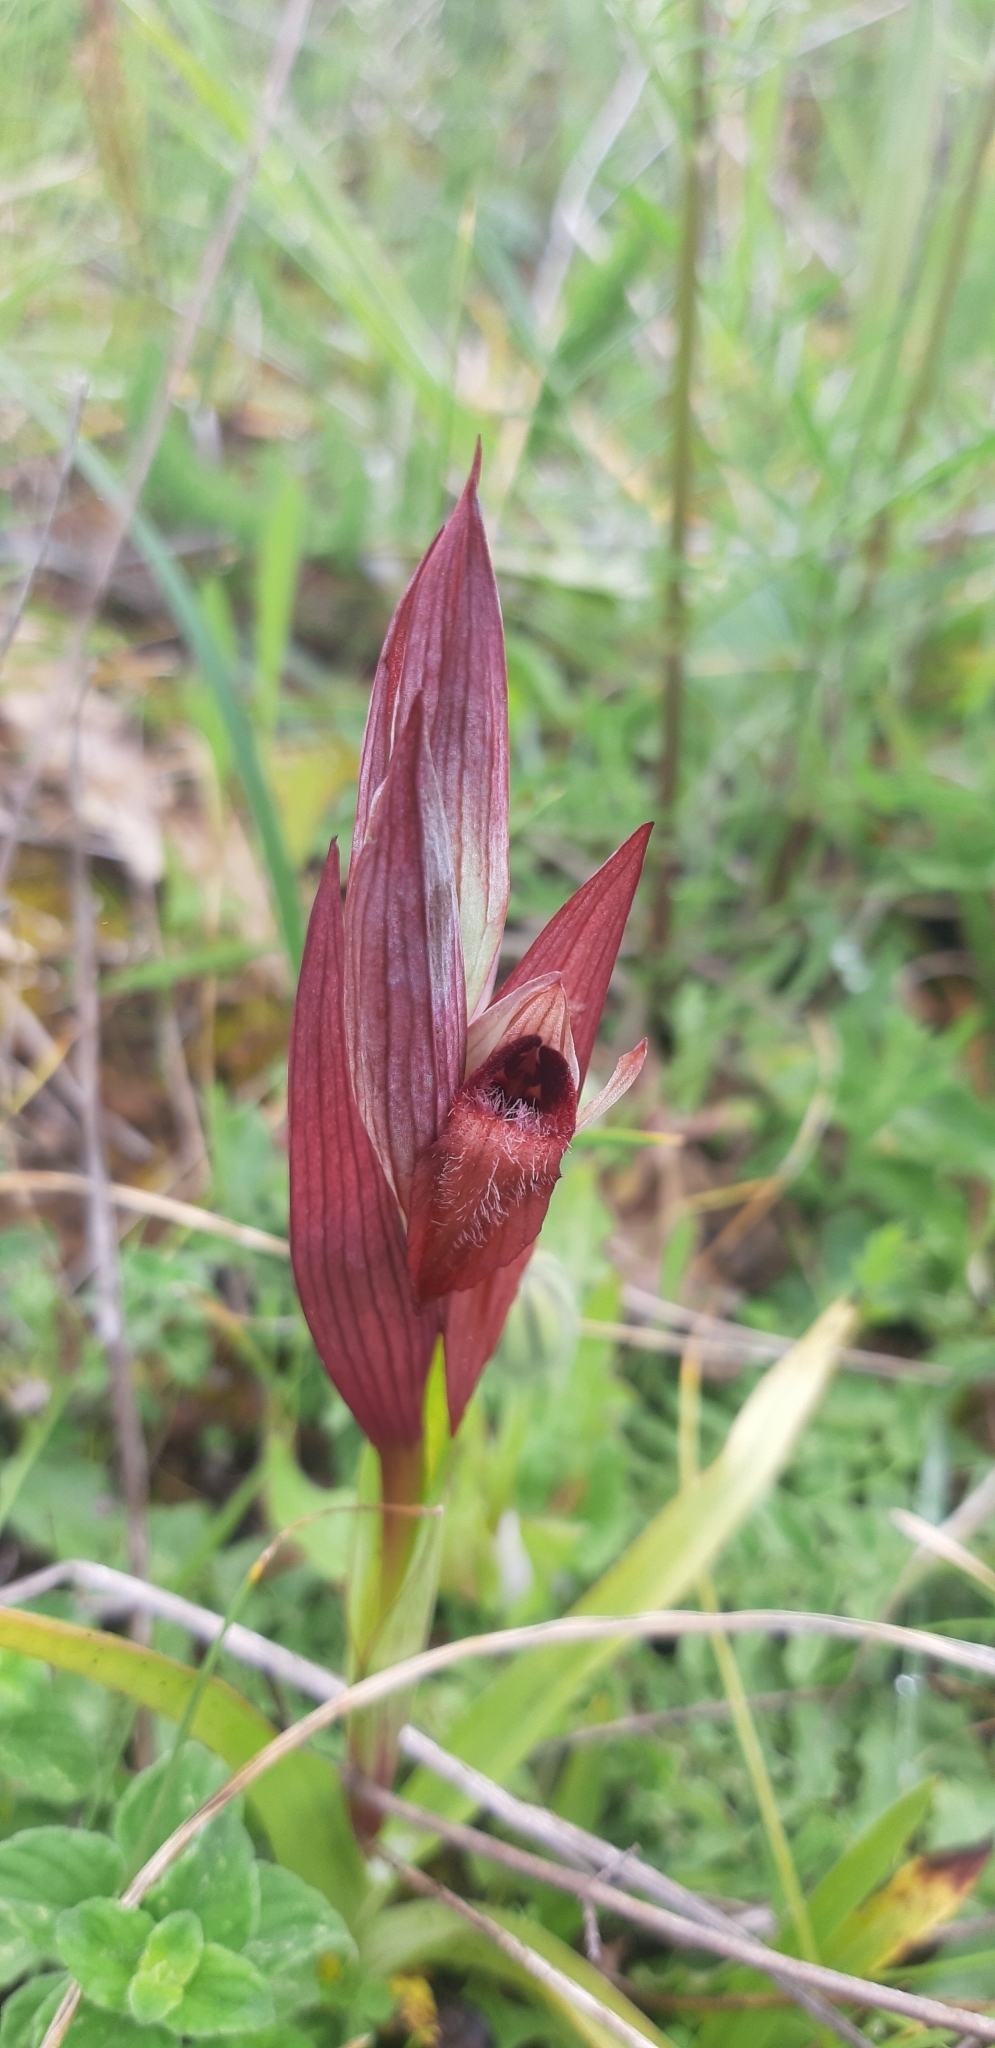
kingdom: Plantae
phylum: Tracheophyta
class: Liliopsida
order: Asparagales
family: Orchidaceae
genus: Serapias
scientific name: Serapias vomeracea
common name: Long-lipped tongue-orchid
